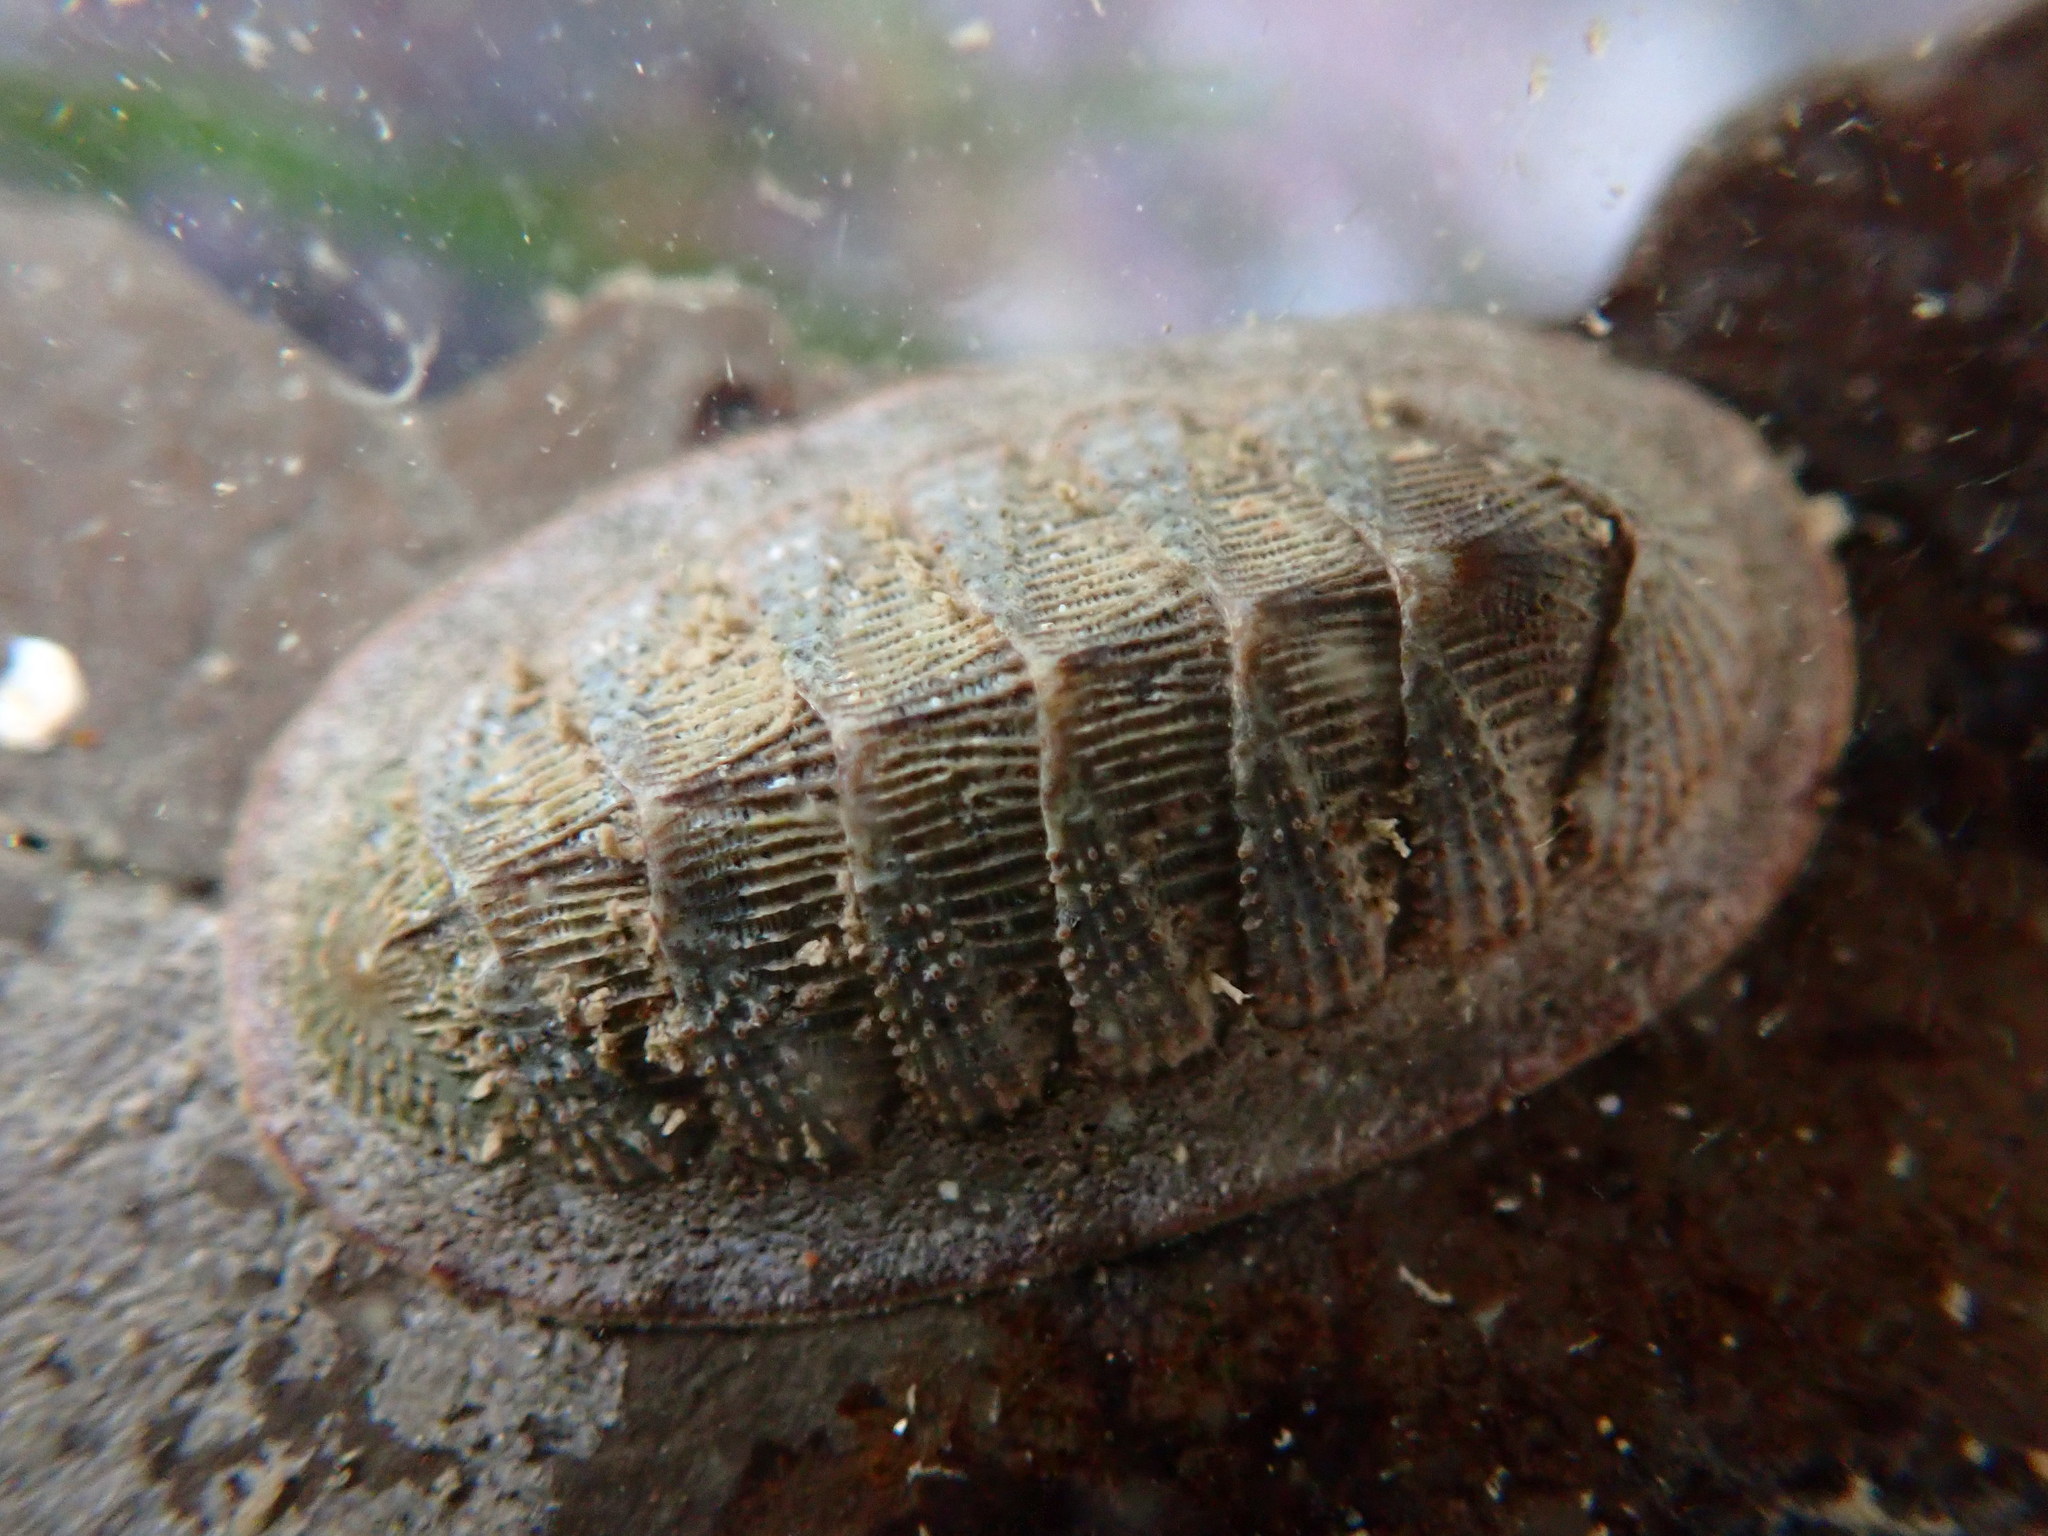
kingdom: Animalia
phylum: Mollusca
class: Polyplacophora
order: Chitonida
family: Ischnochitonidae
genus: Lepidozona
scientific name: Lepidozona cooperi
